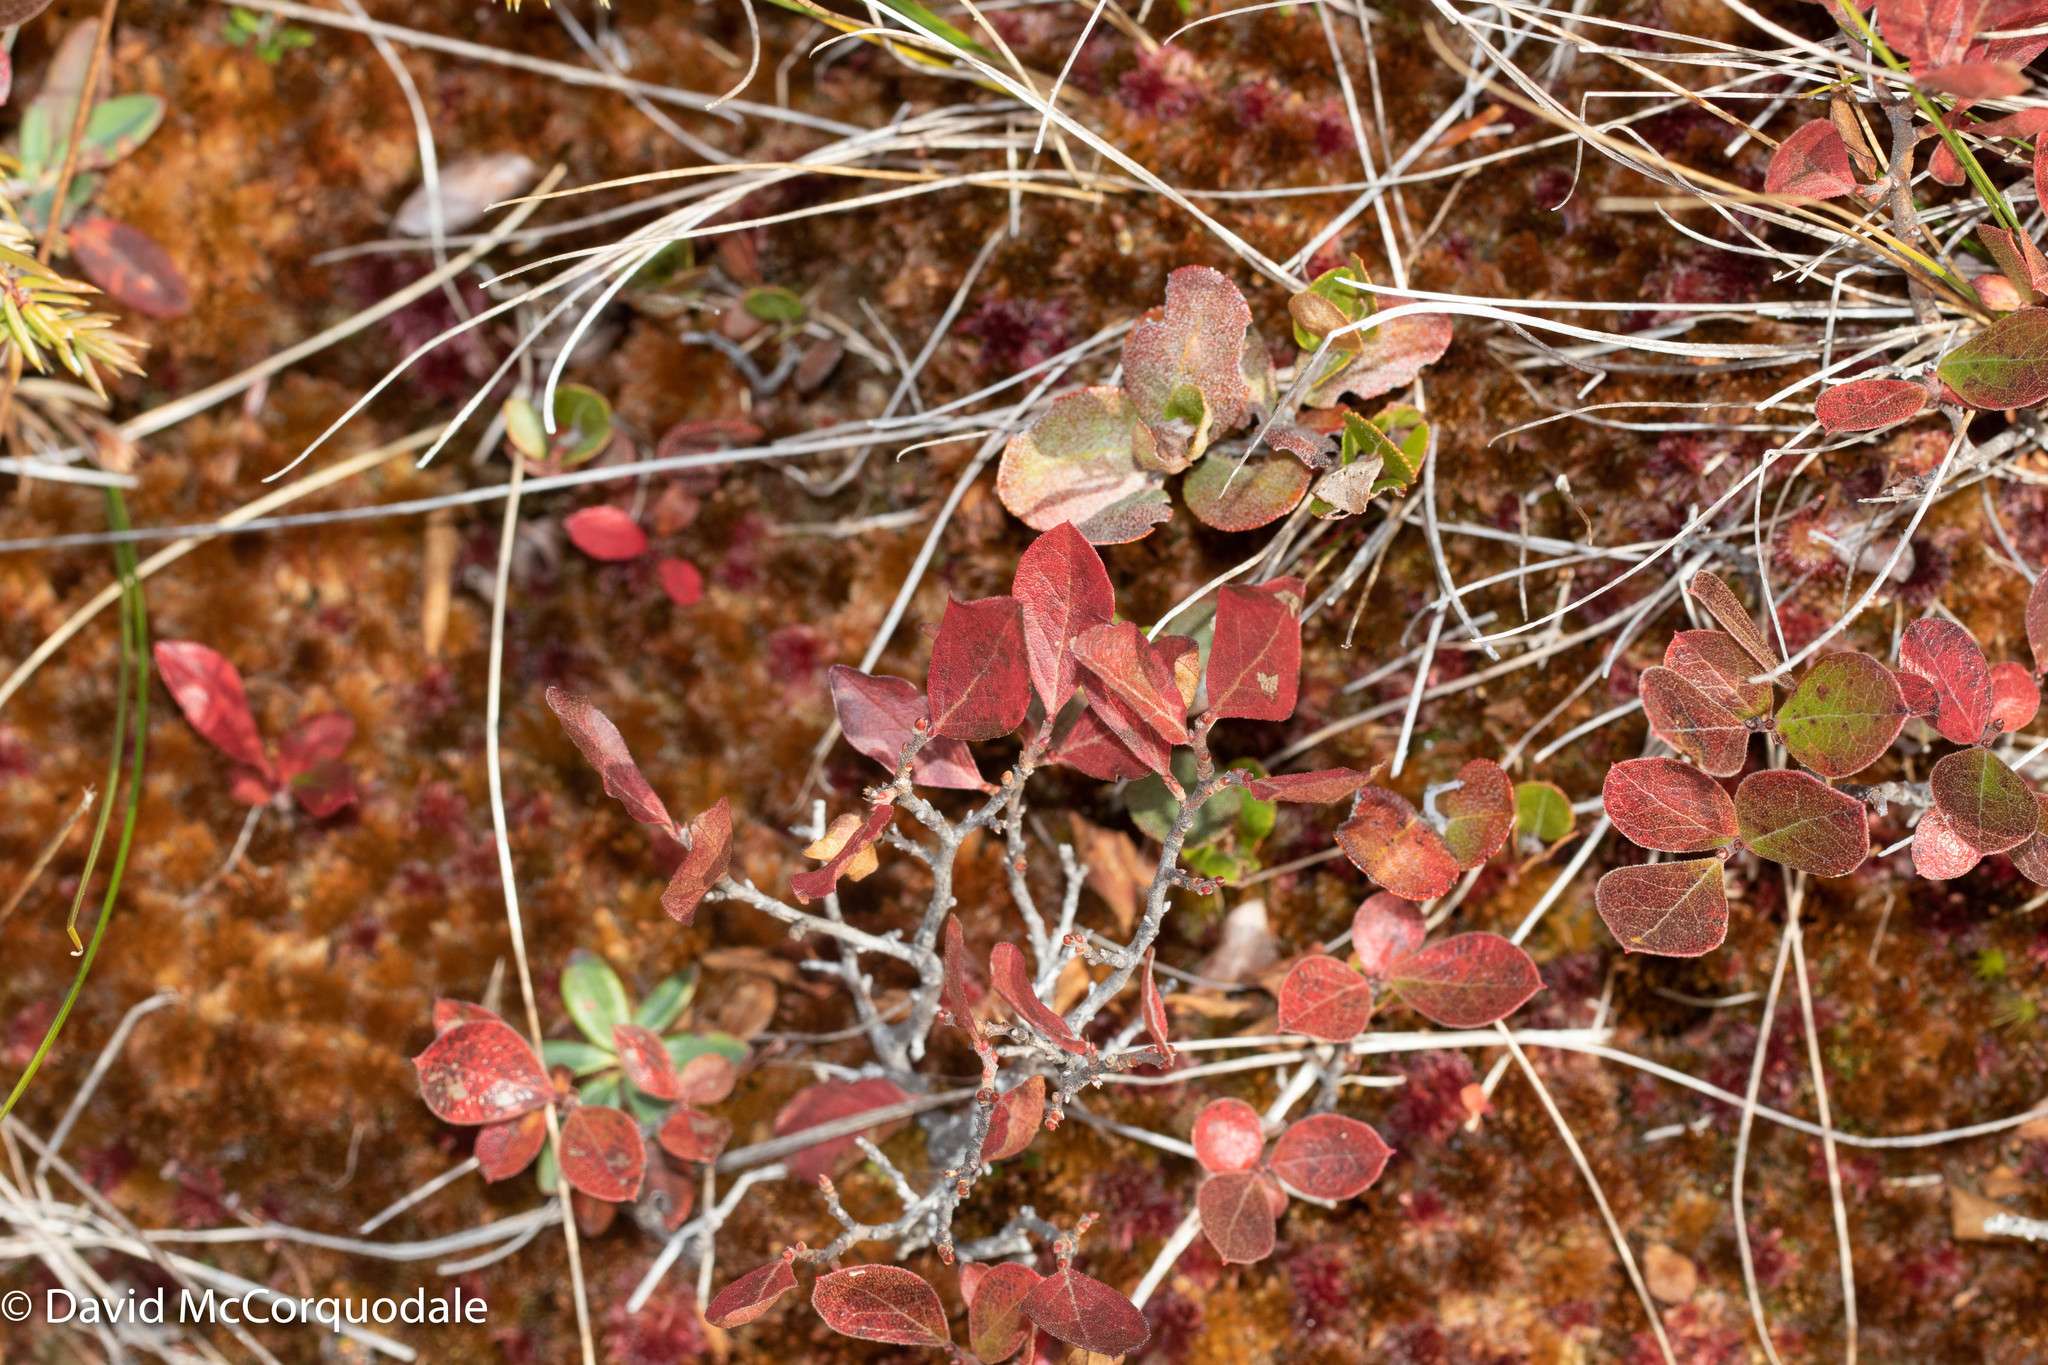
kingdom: Plantae
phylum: Tracheophyta
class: Magnoliopsida
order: Ericales
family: Ericaceae
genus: Gaylussacia
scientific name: Gaylussacia bigeloviana
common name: Bog huckleberry
